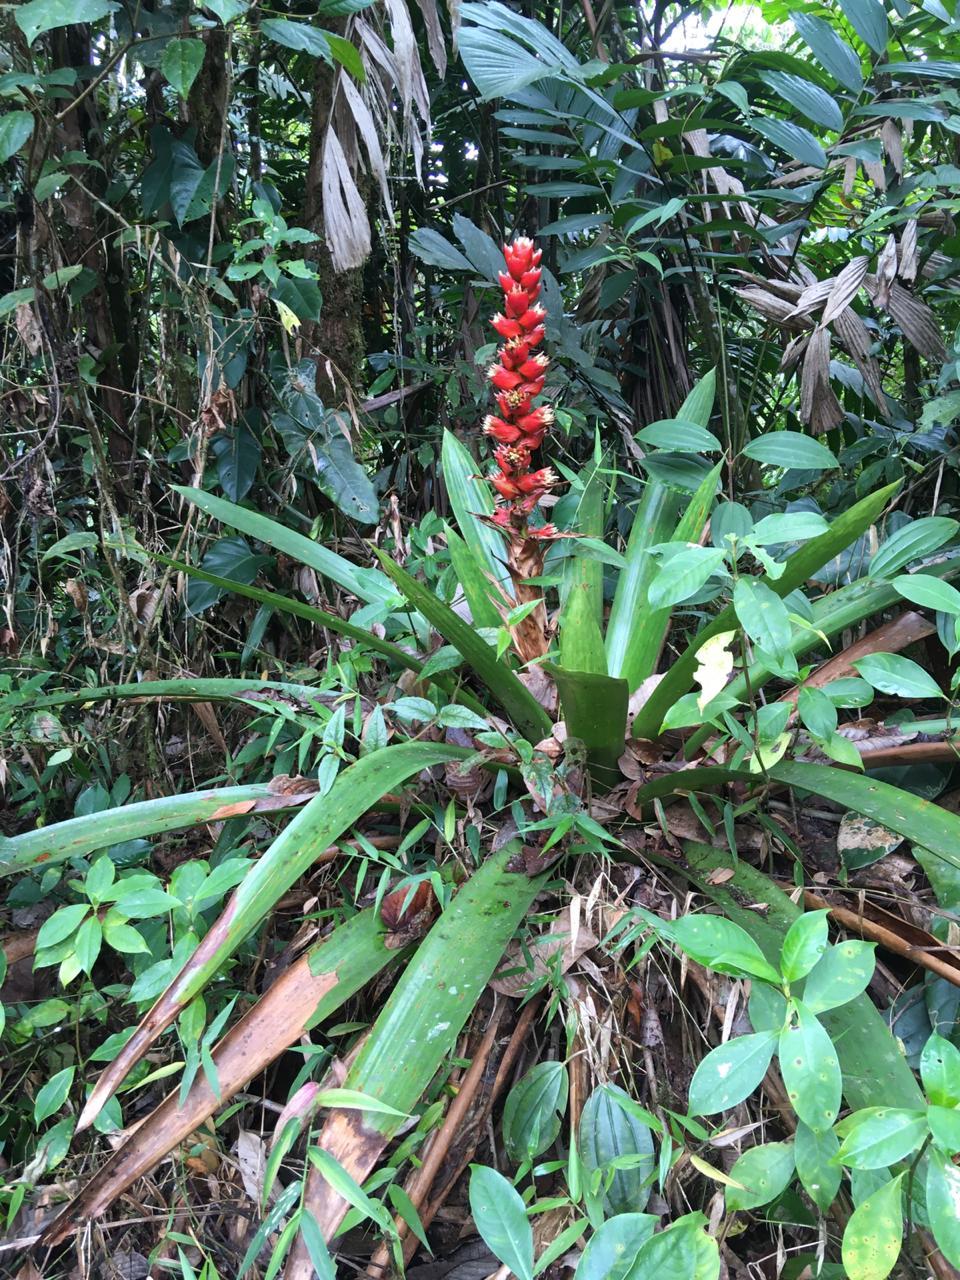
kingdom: Plantae
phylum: Tracheophyta
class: Liliopsida
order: Poales
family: Bromeliaceae
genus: Cipuropsis
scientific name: Cipuropsis capituligera
